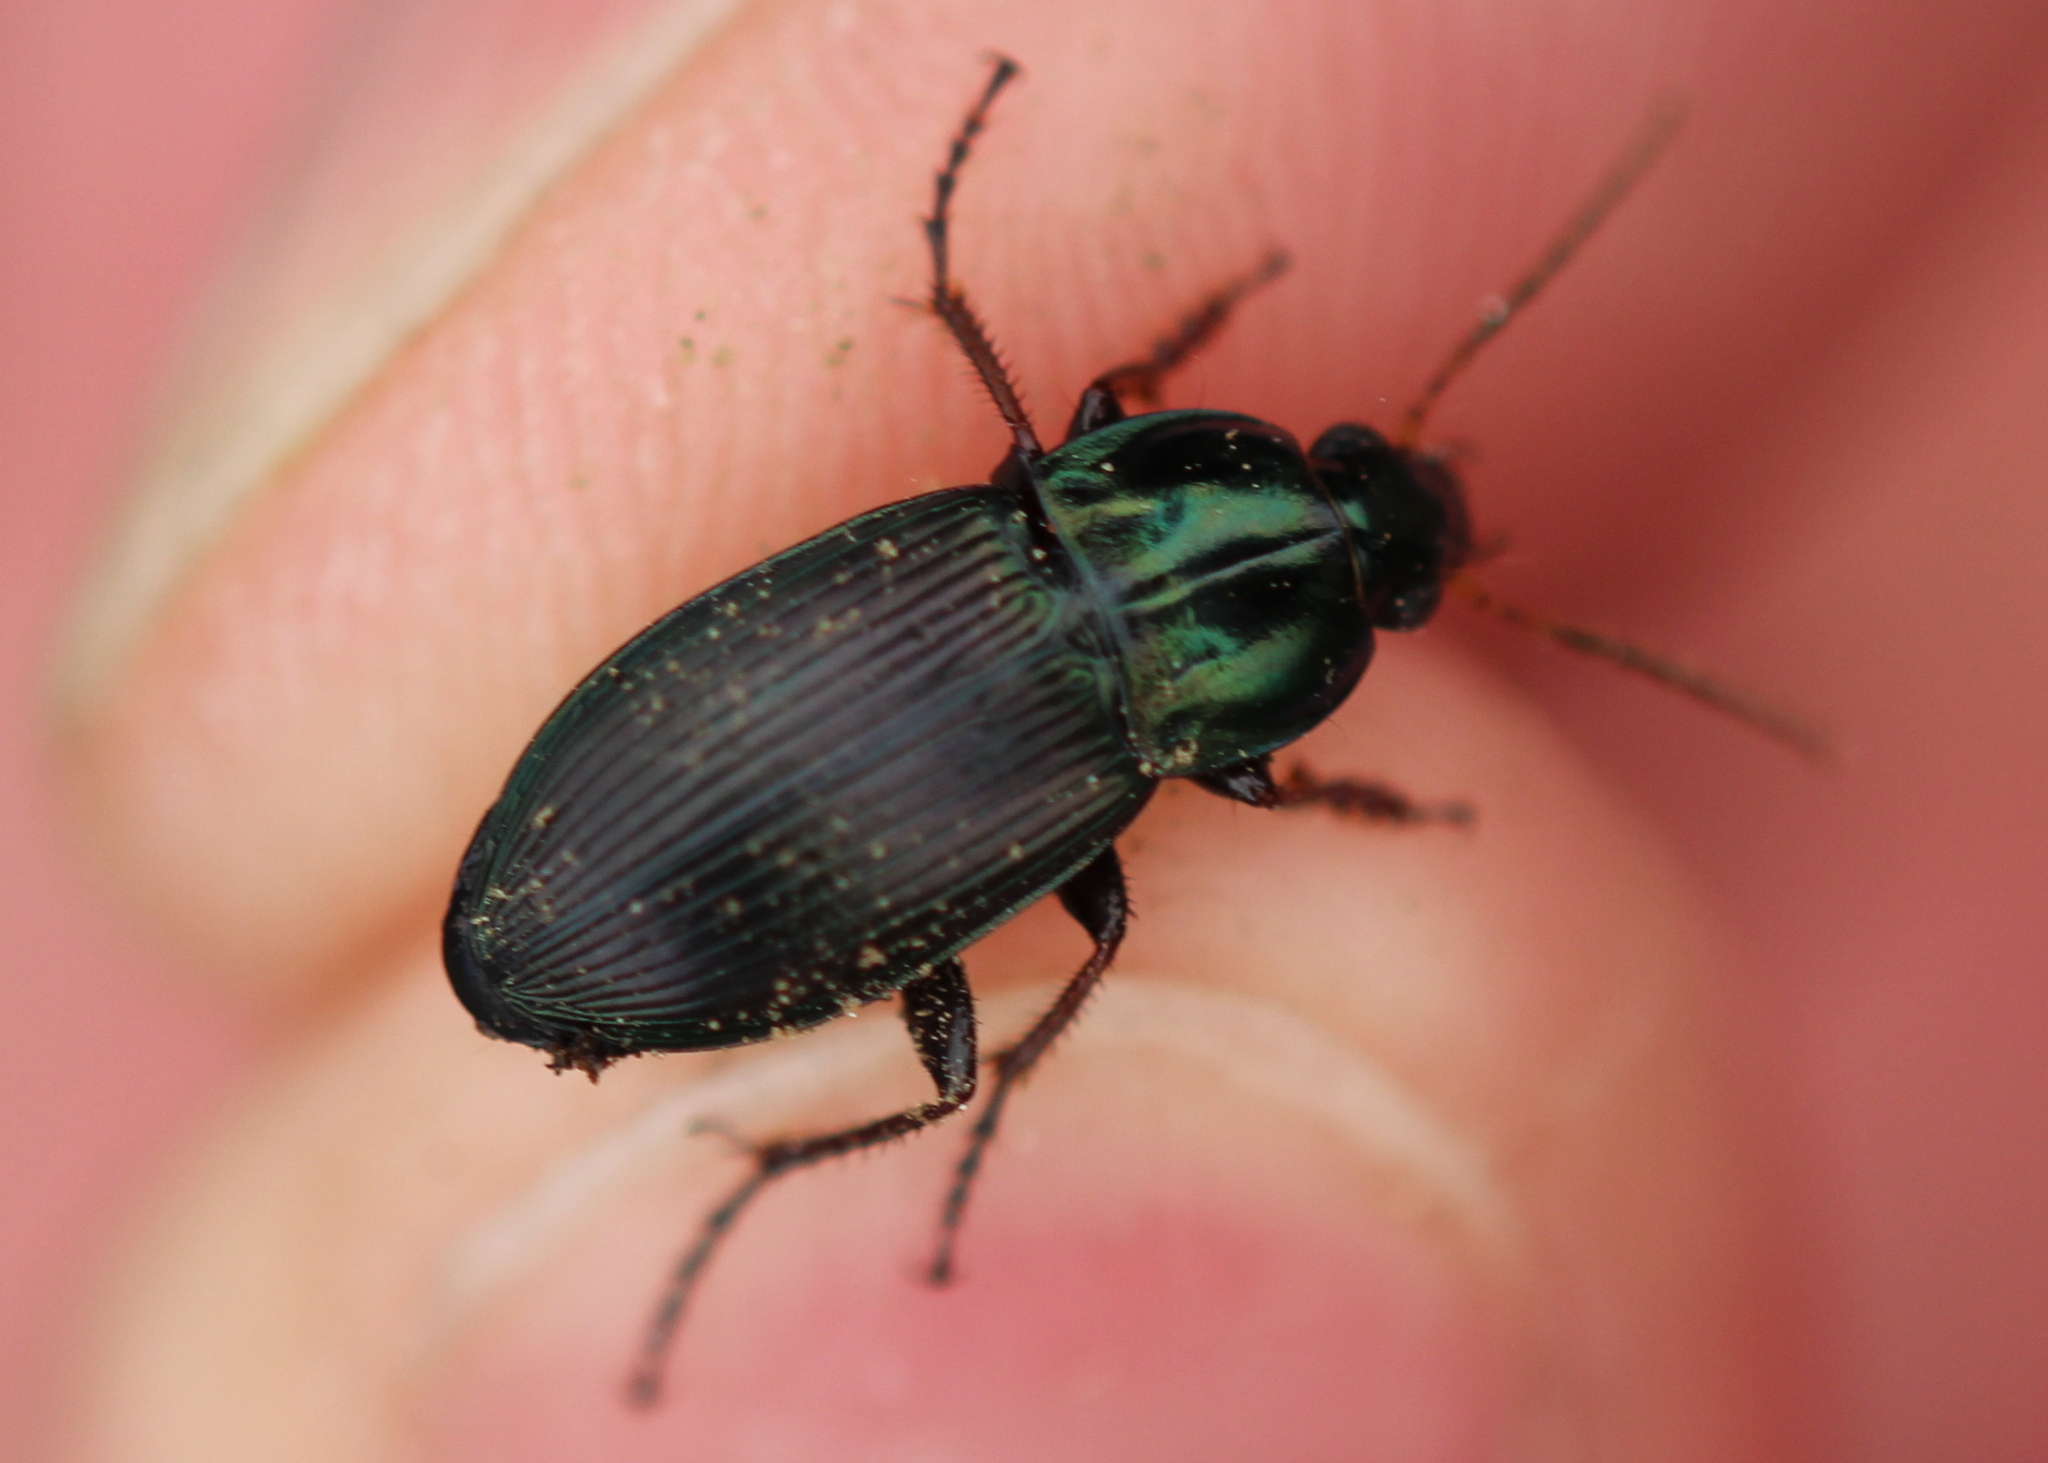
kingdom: Animalia
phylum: Arthropoda
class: Insecta
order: Coleoptera
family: Carabidae
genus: Poecilus
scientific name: Poecilus lucublandus
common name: Woodland ground beetle
